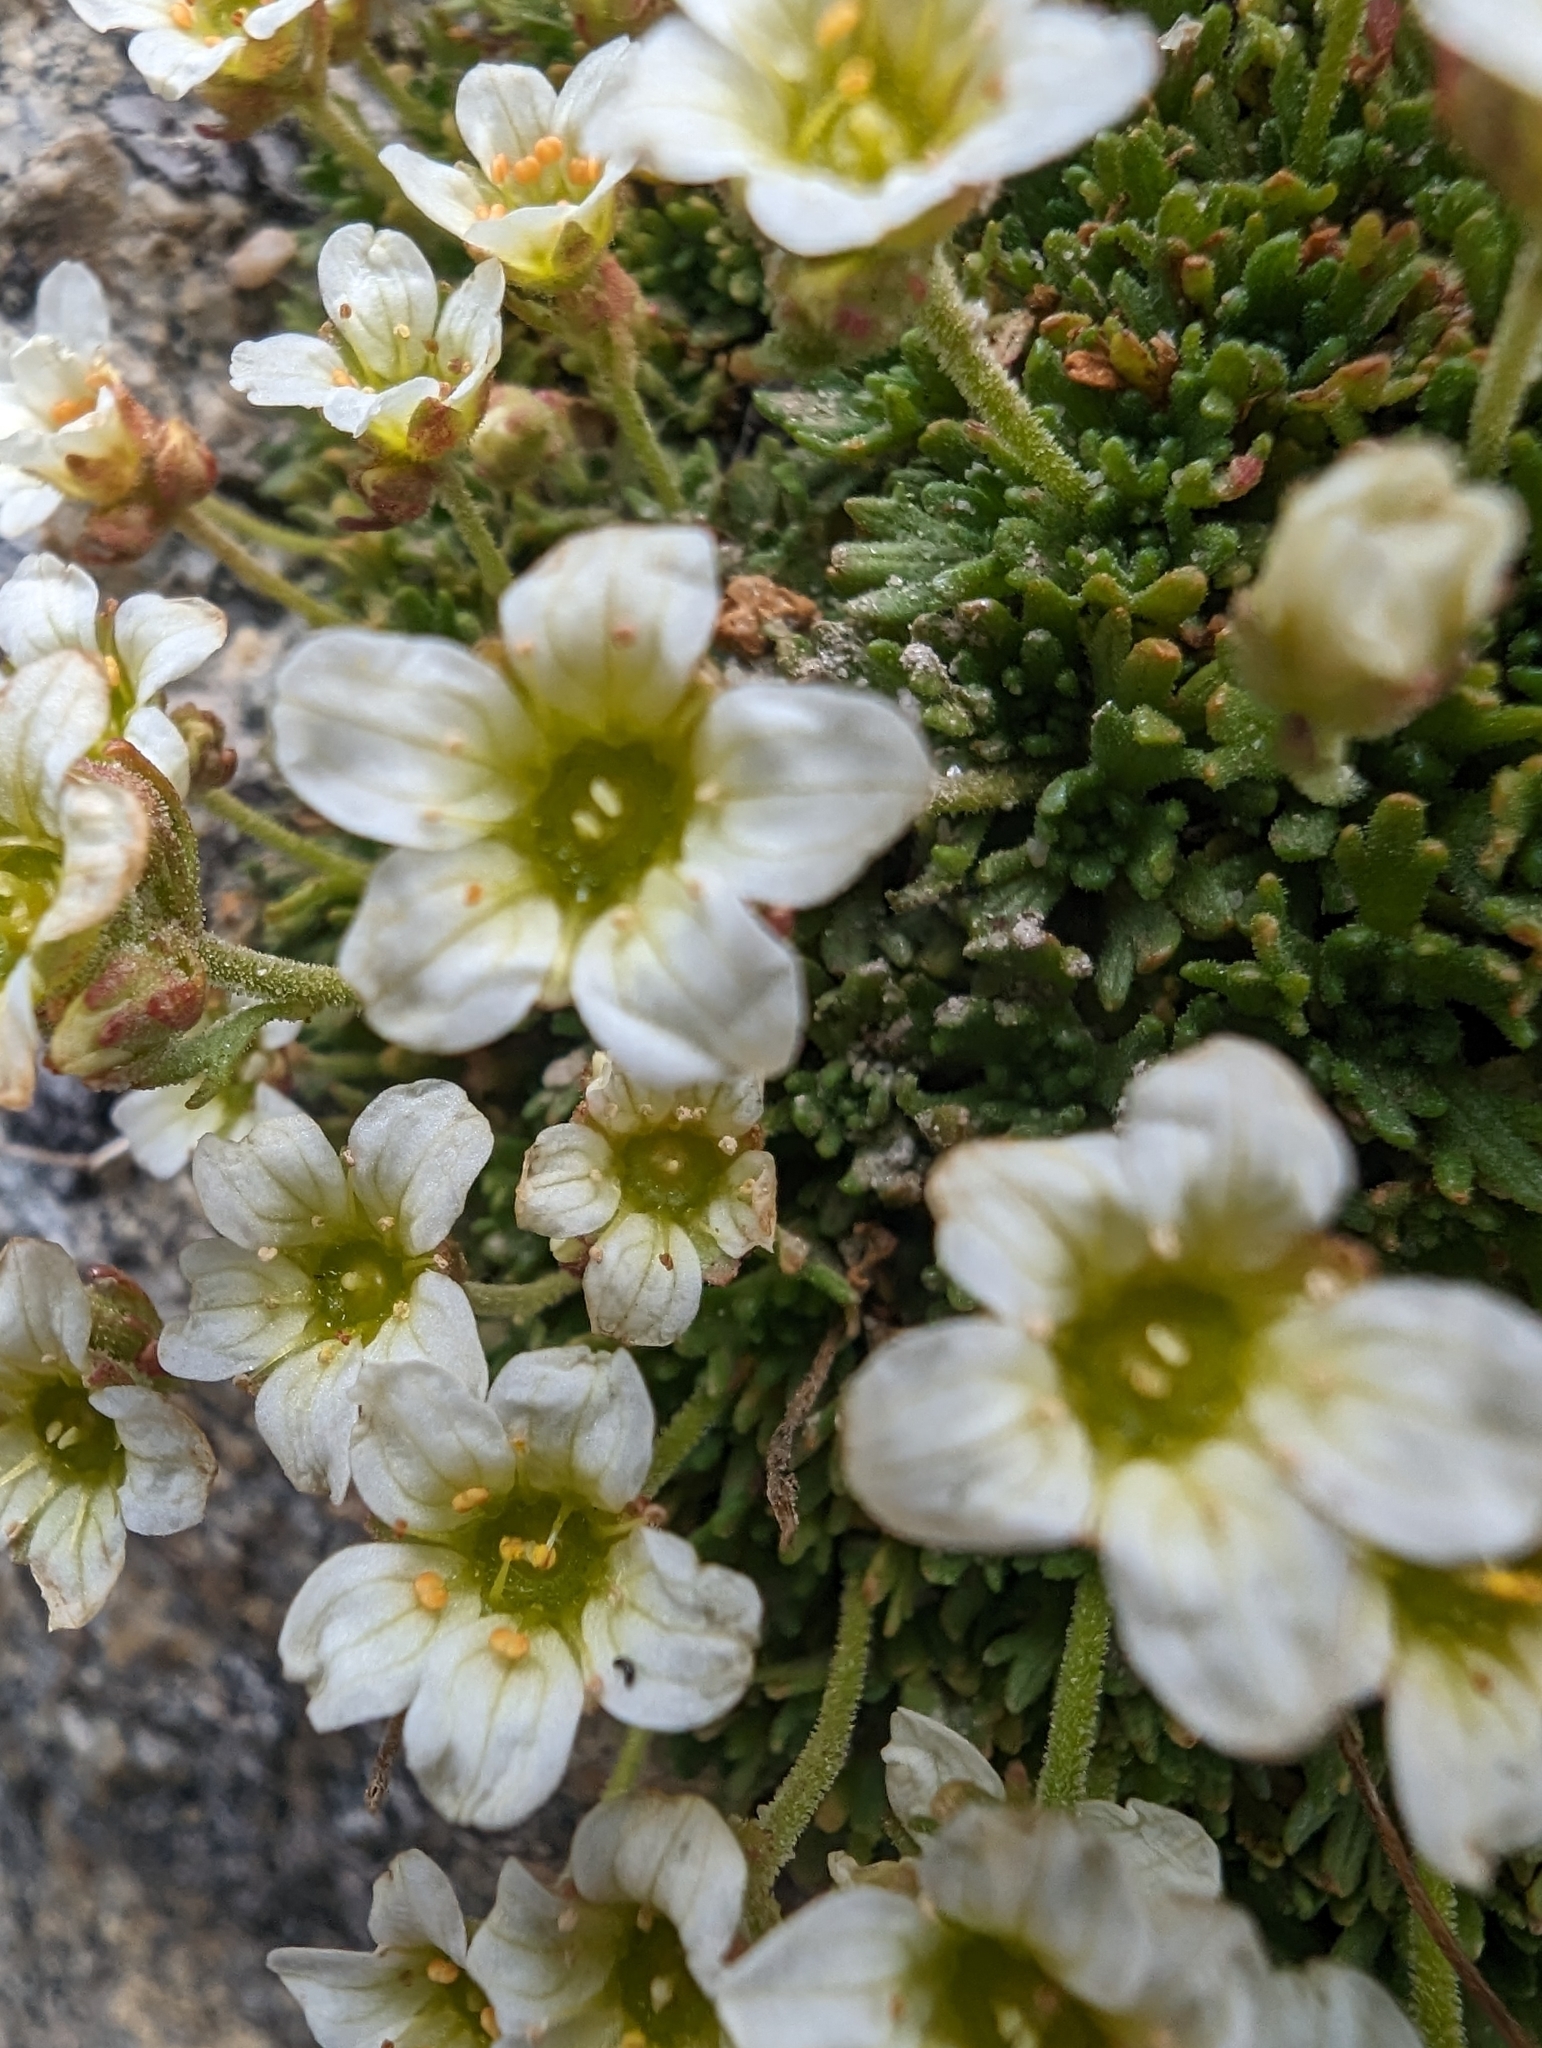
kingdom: Plantae
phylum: Tracheophyta
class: Magnoliopsida
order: Saxifragales
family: Saxifragaceae
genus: Saxifraga
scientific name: Saxifraga exarata
